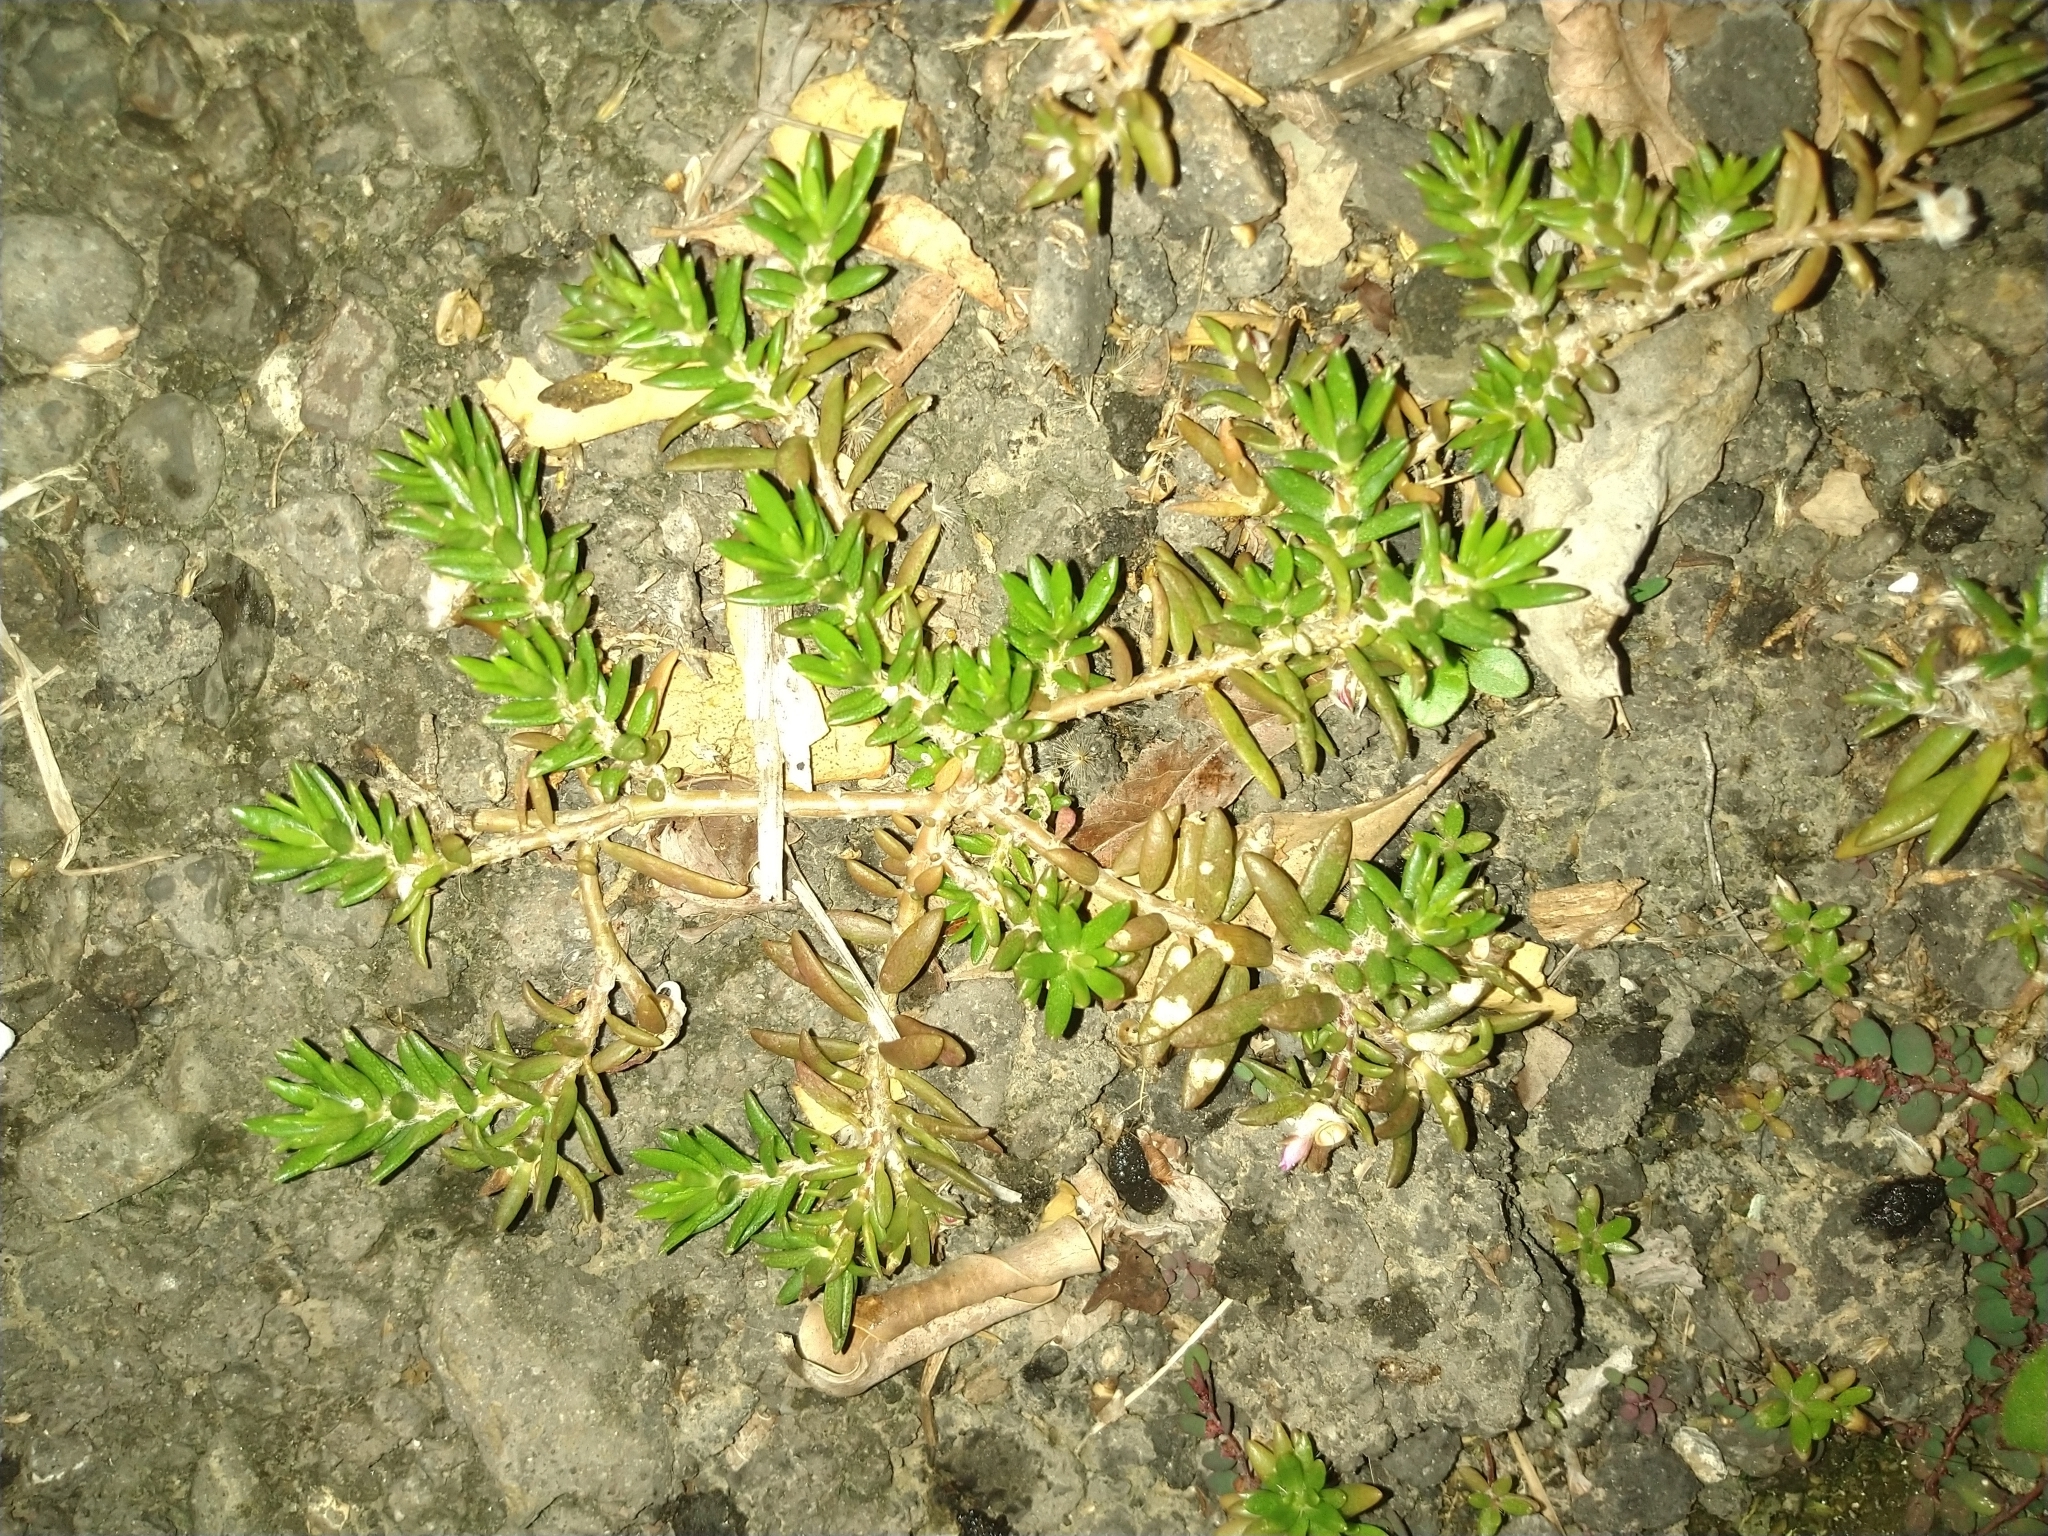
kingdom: Plantae
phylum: Tracheophyta
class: Magnoliopsida
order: Caryophyllales
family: Portulacaceae
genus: Portulaca
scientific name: Portulaca pilosa
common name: Kiss me quick
